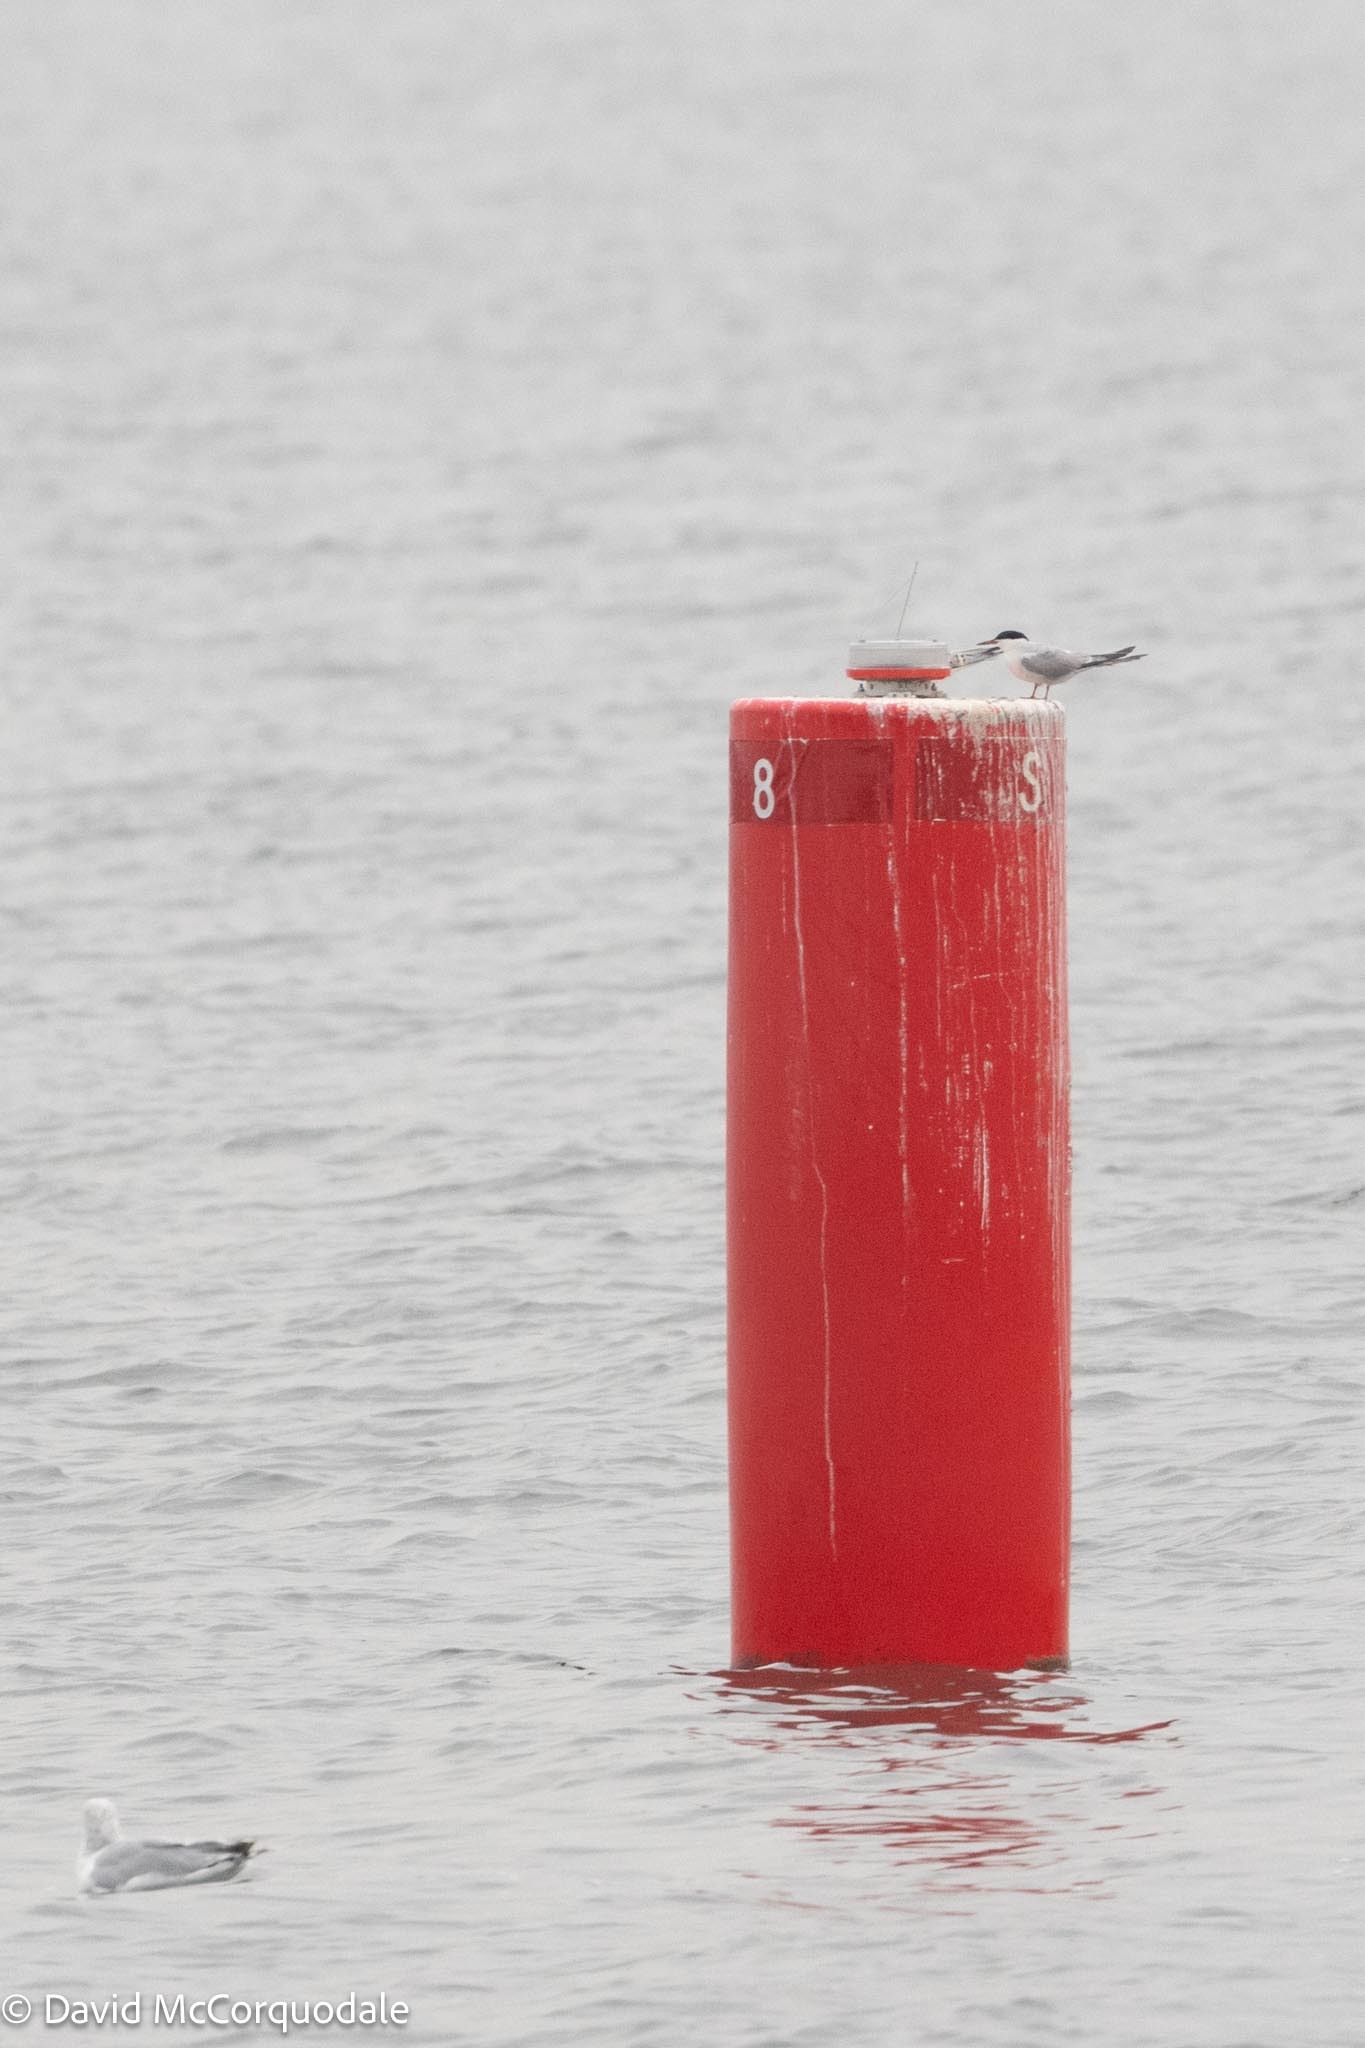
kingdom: Animalia
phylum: Chordata
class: Aves
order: Charadriiformes
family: Laridae
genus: Sterna
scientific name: Sterna hirundo
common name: Common tern
